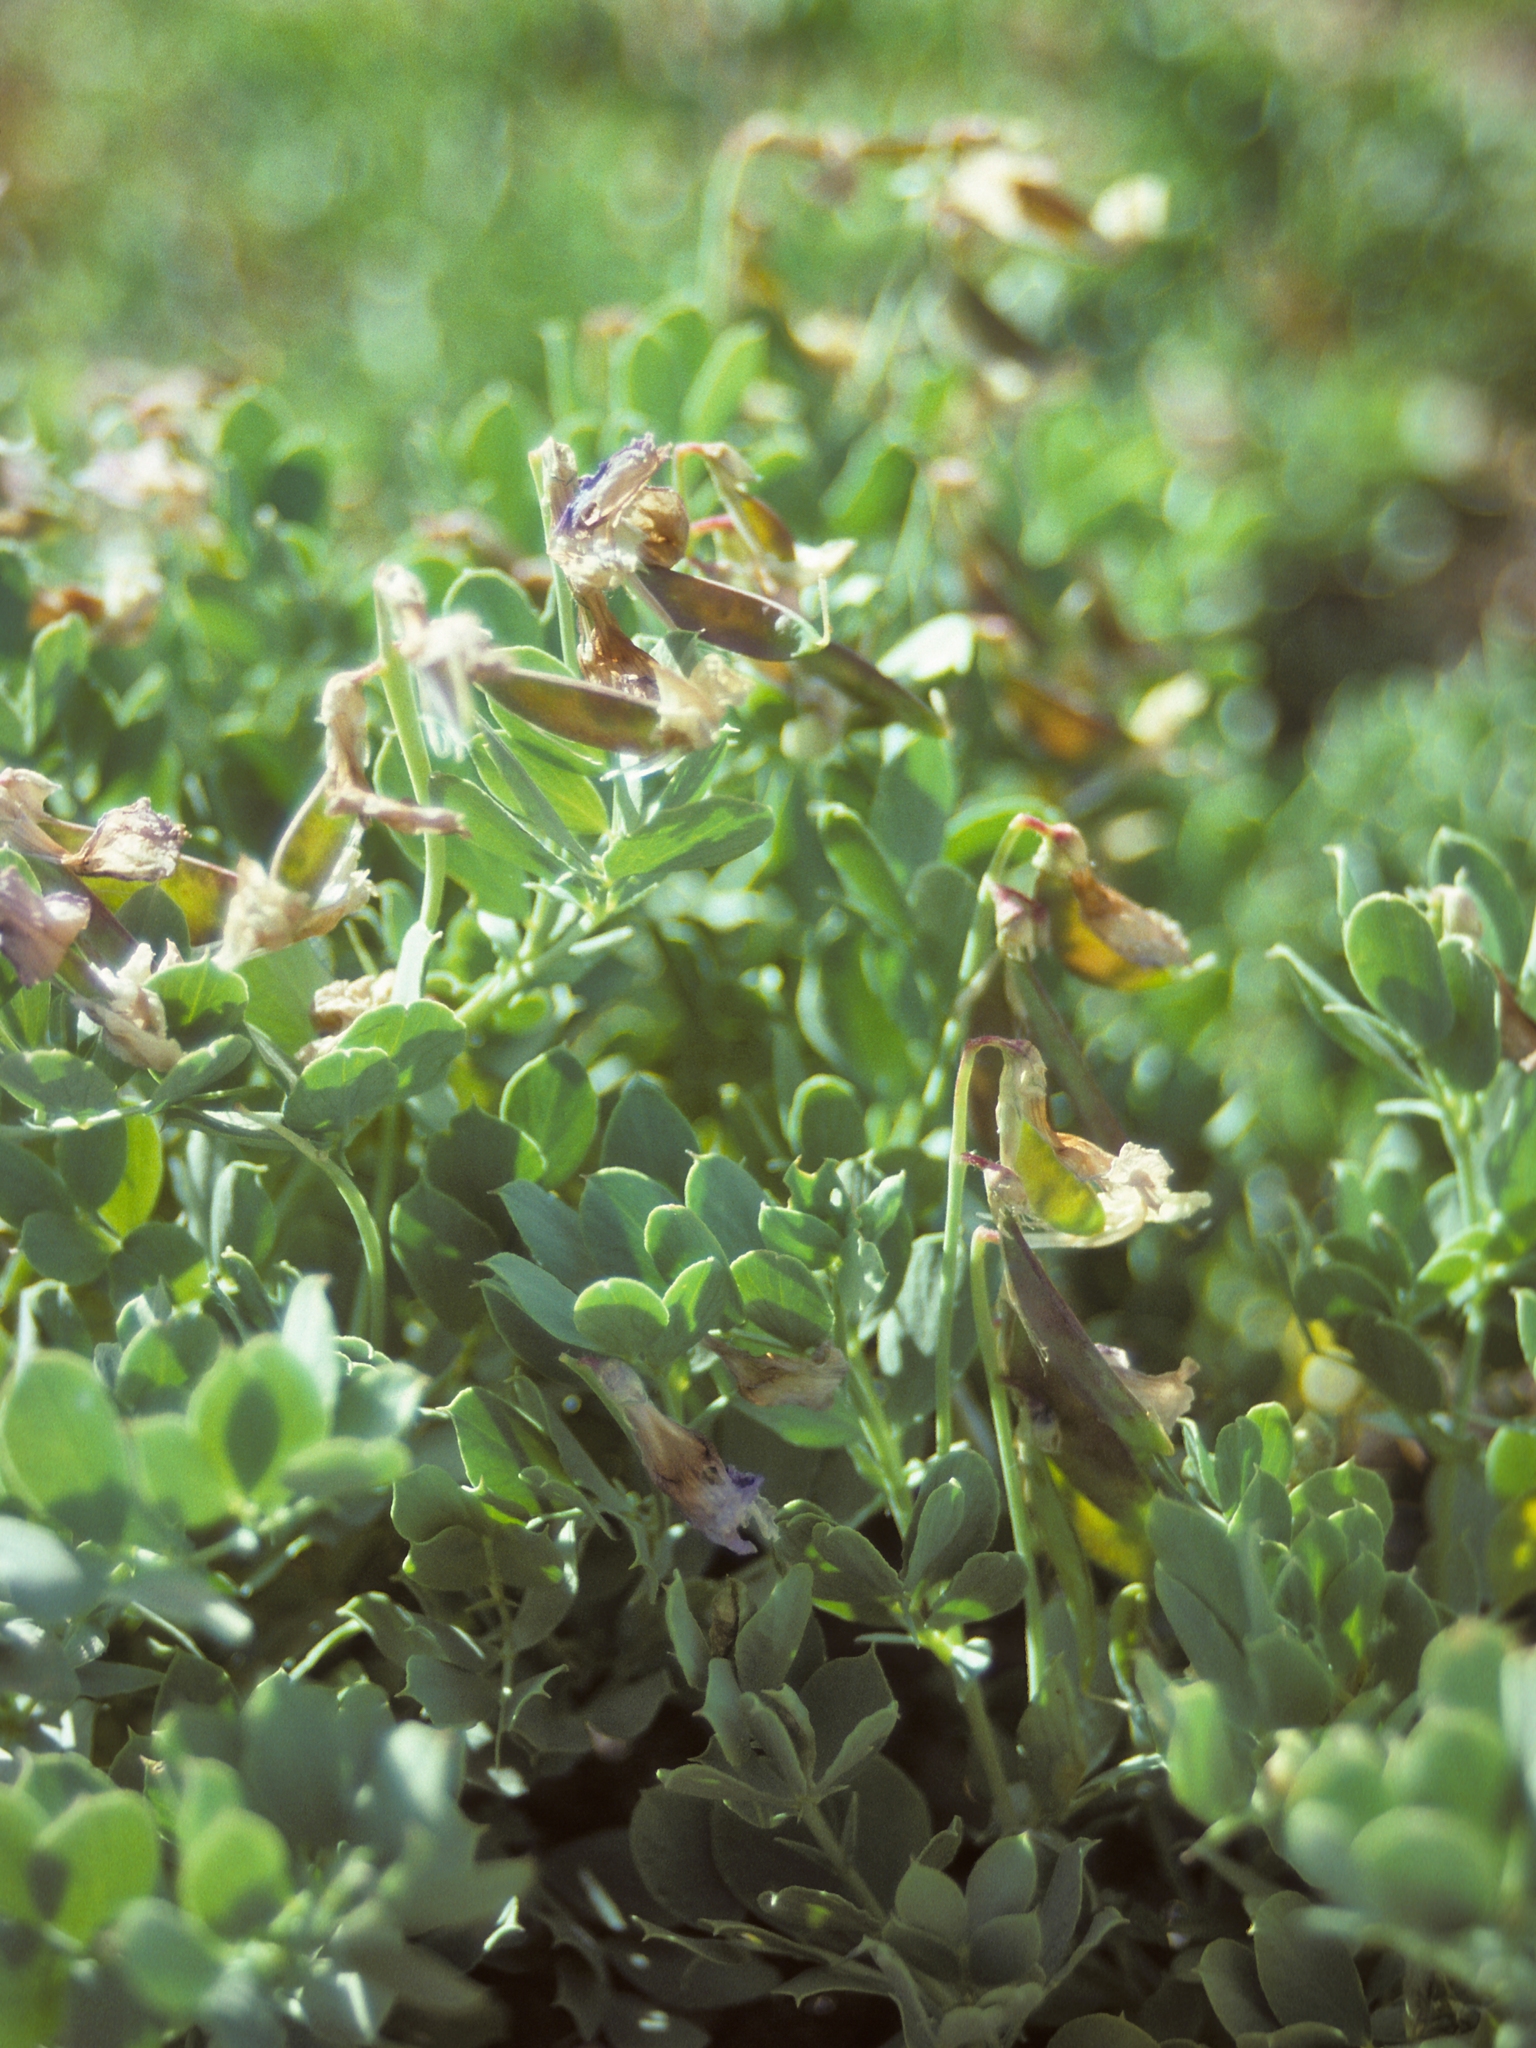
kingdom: Plantae
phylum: Tracheophyta
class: Magnoliopsida
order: Fabales
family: Fabaceae
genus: Lathyrus
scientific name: Lathyrus grimesii
